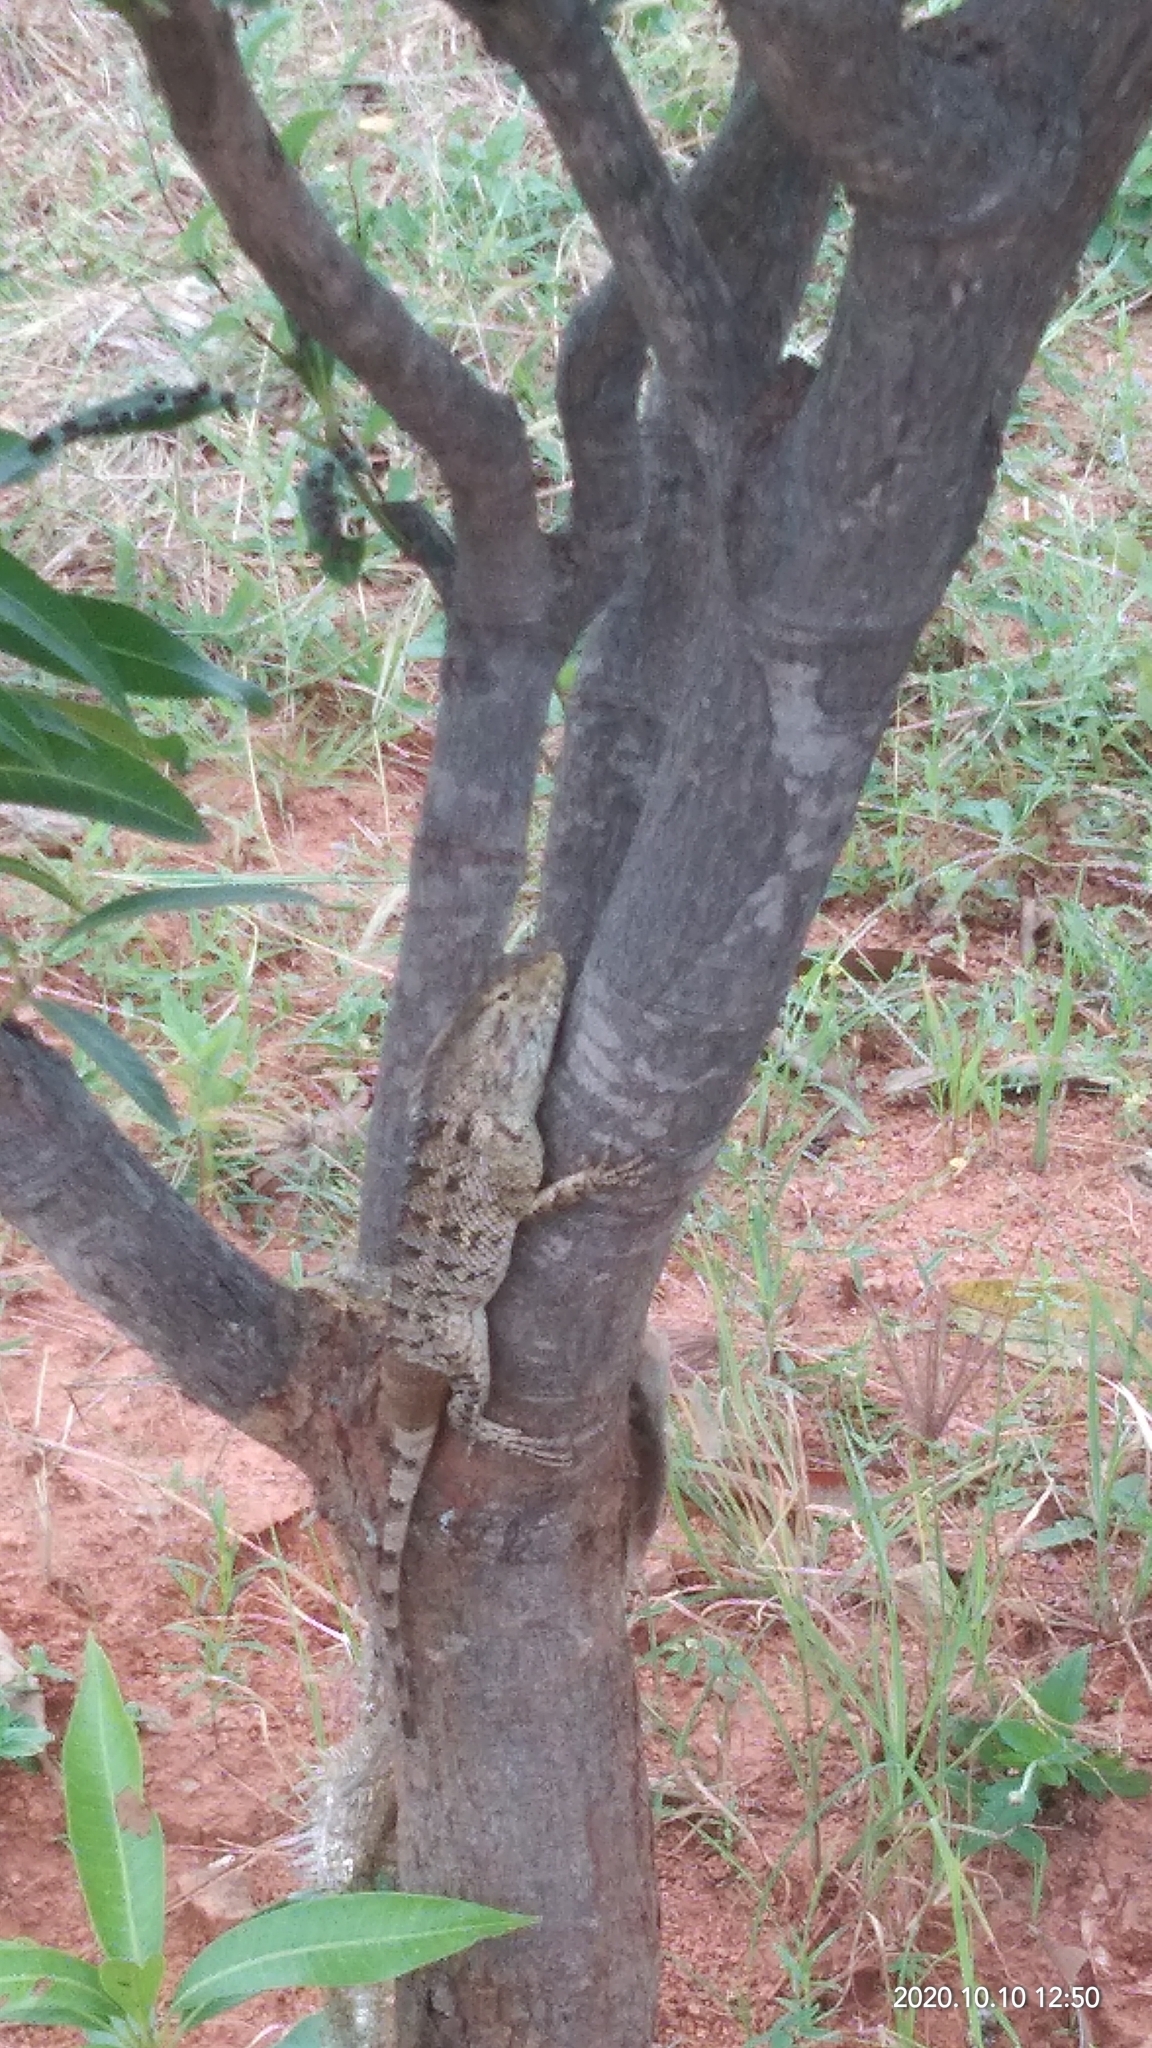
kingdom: Animalia
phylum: Chordata
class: Squamata
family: Agamidae
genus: Calotes
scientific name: Calotes versicolor
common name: Oriental garden lizard
